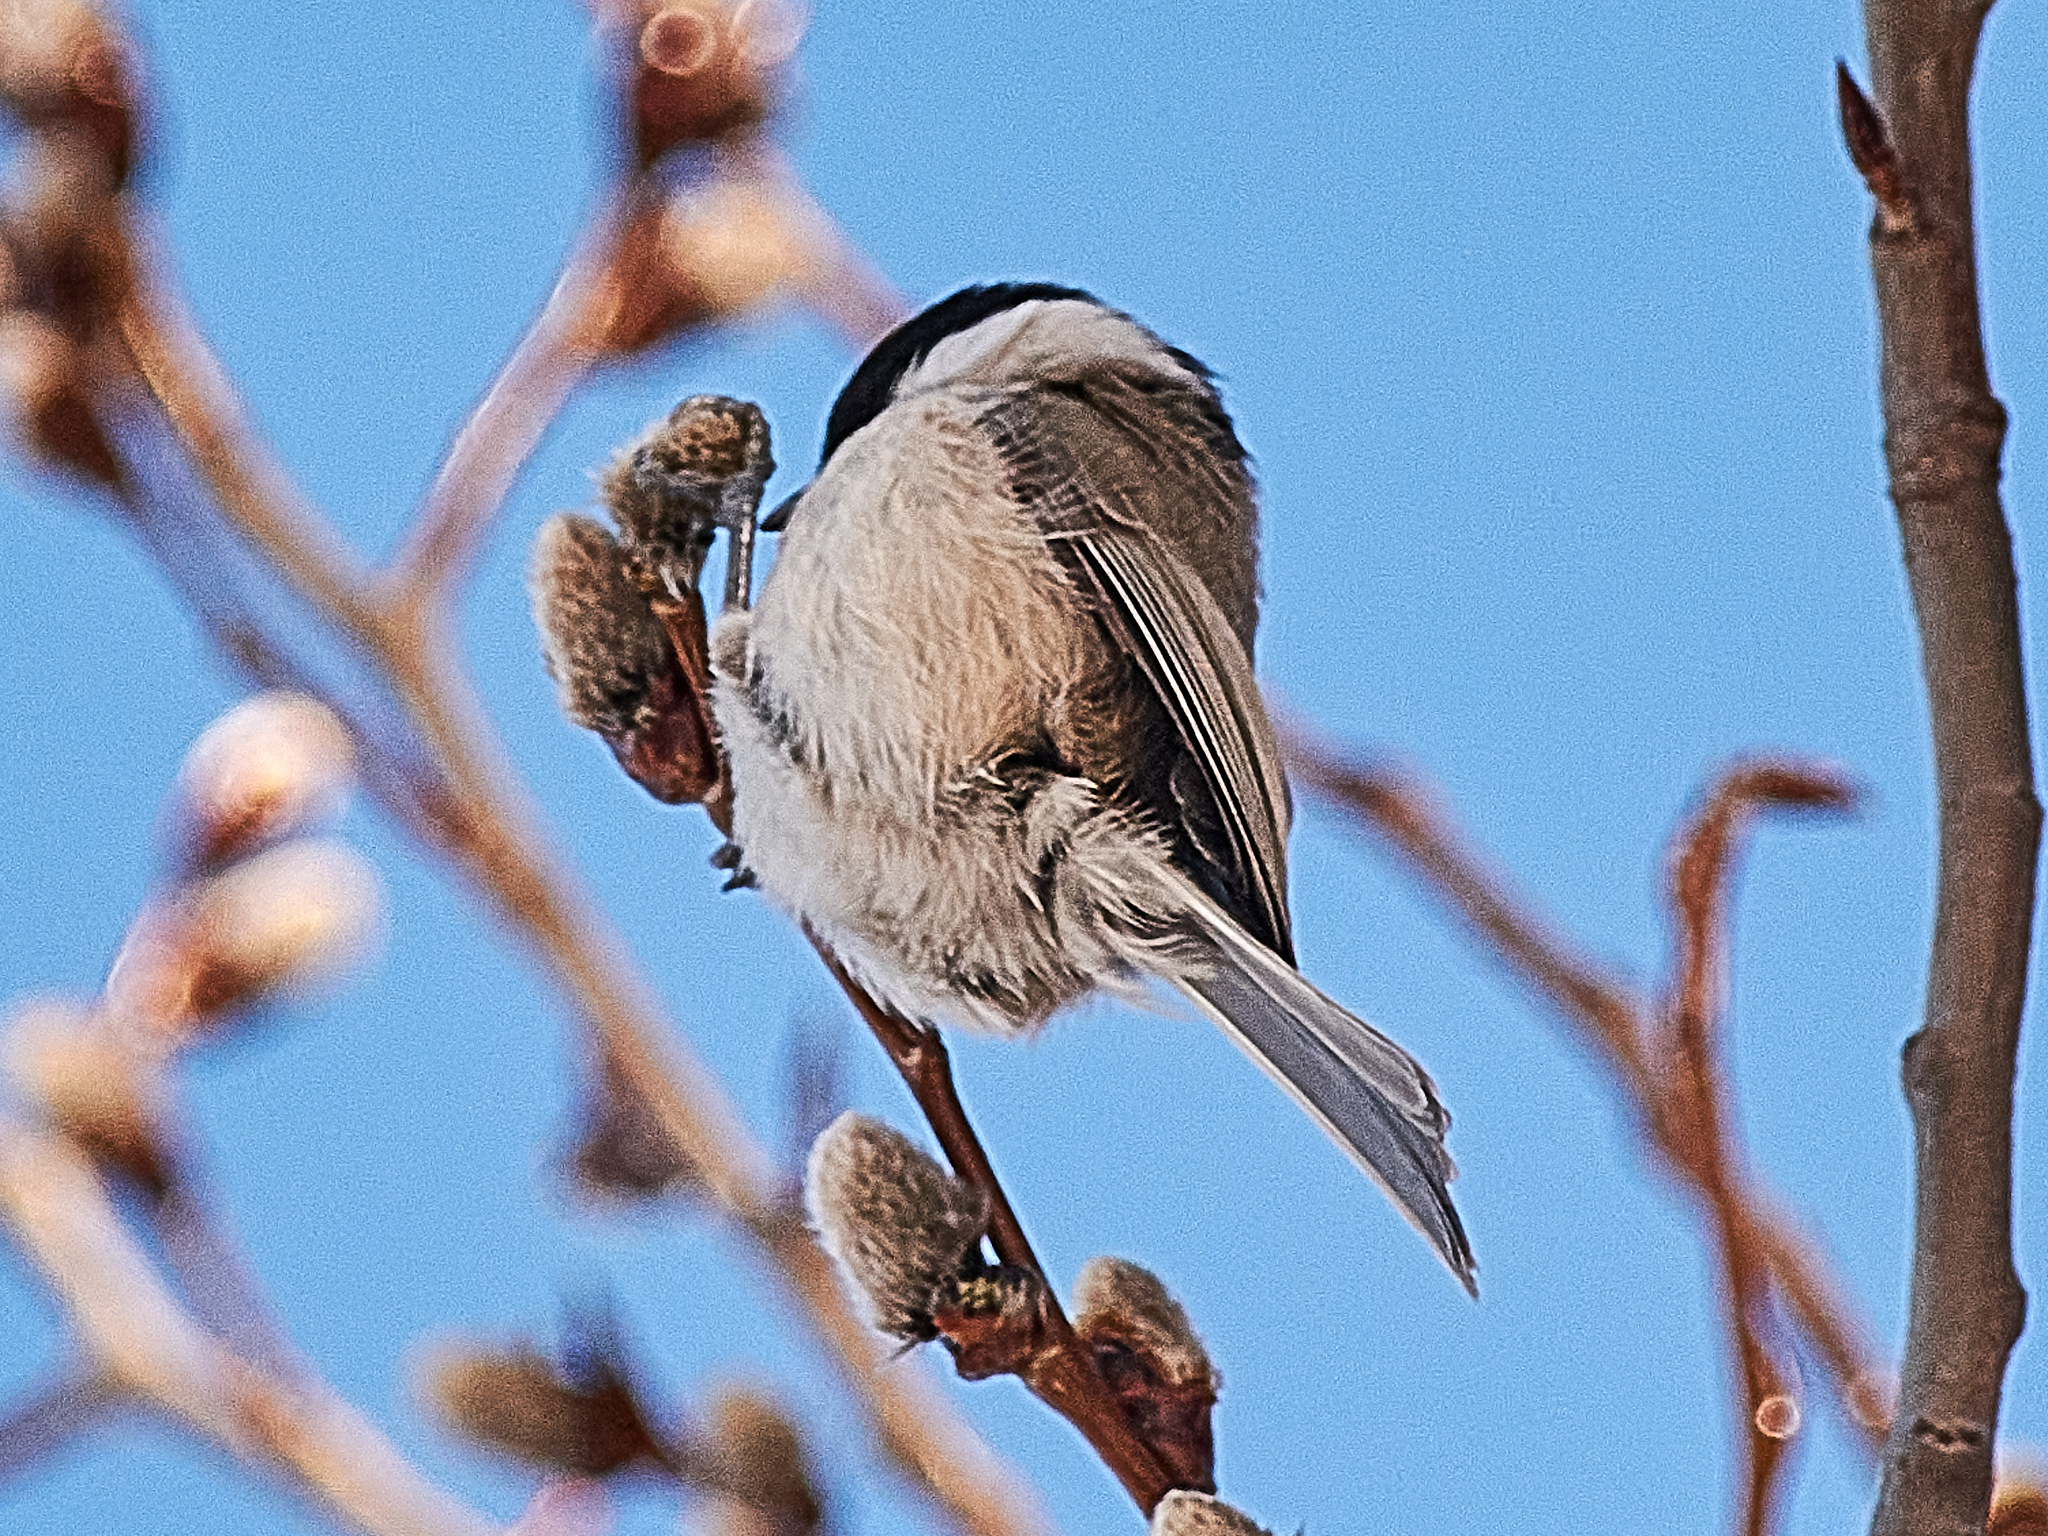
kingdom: Animalia
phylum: Chordata
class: Aves
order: Passeriformes
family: Paridae
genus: Poecile
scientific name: Poecile palustris
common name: Marsh tit
